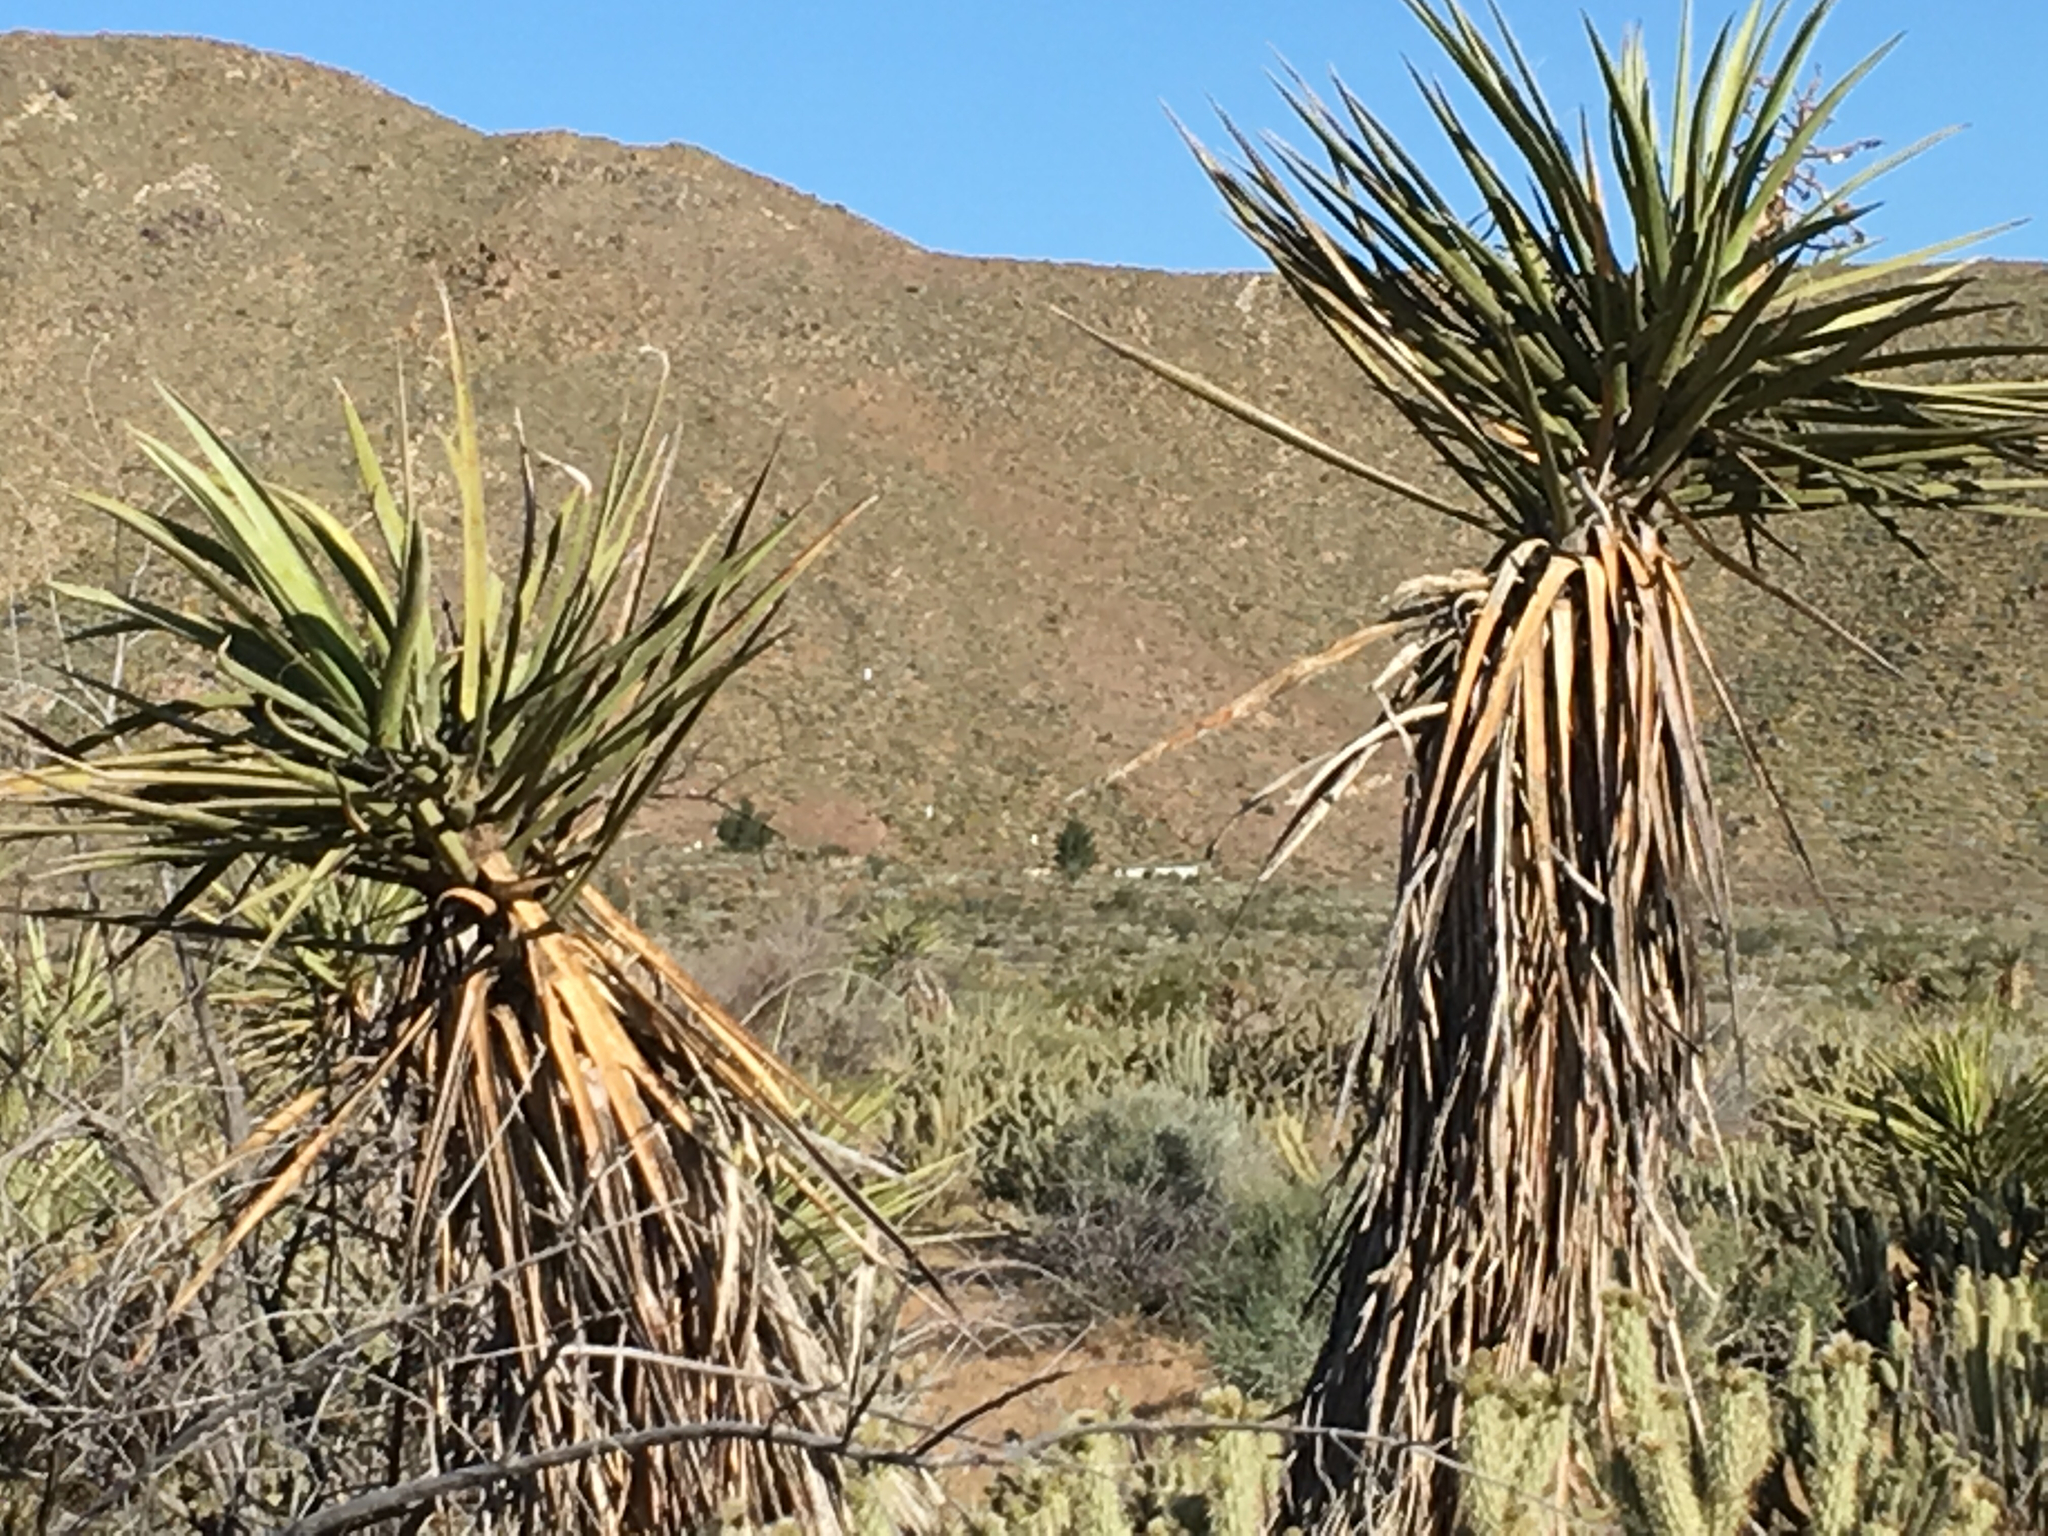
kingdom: Plantae
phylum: Tracheophyta
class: Liliopsida
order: Asparagales
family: Asparagaceae
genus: Yucca
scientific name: Yucca schidigera
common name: Mojave yucca
